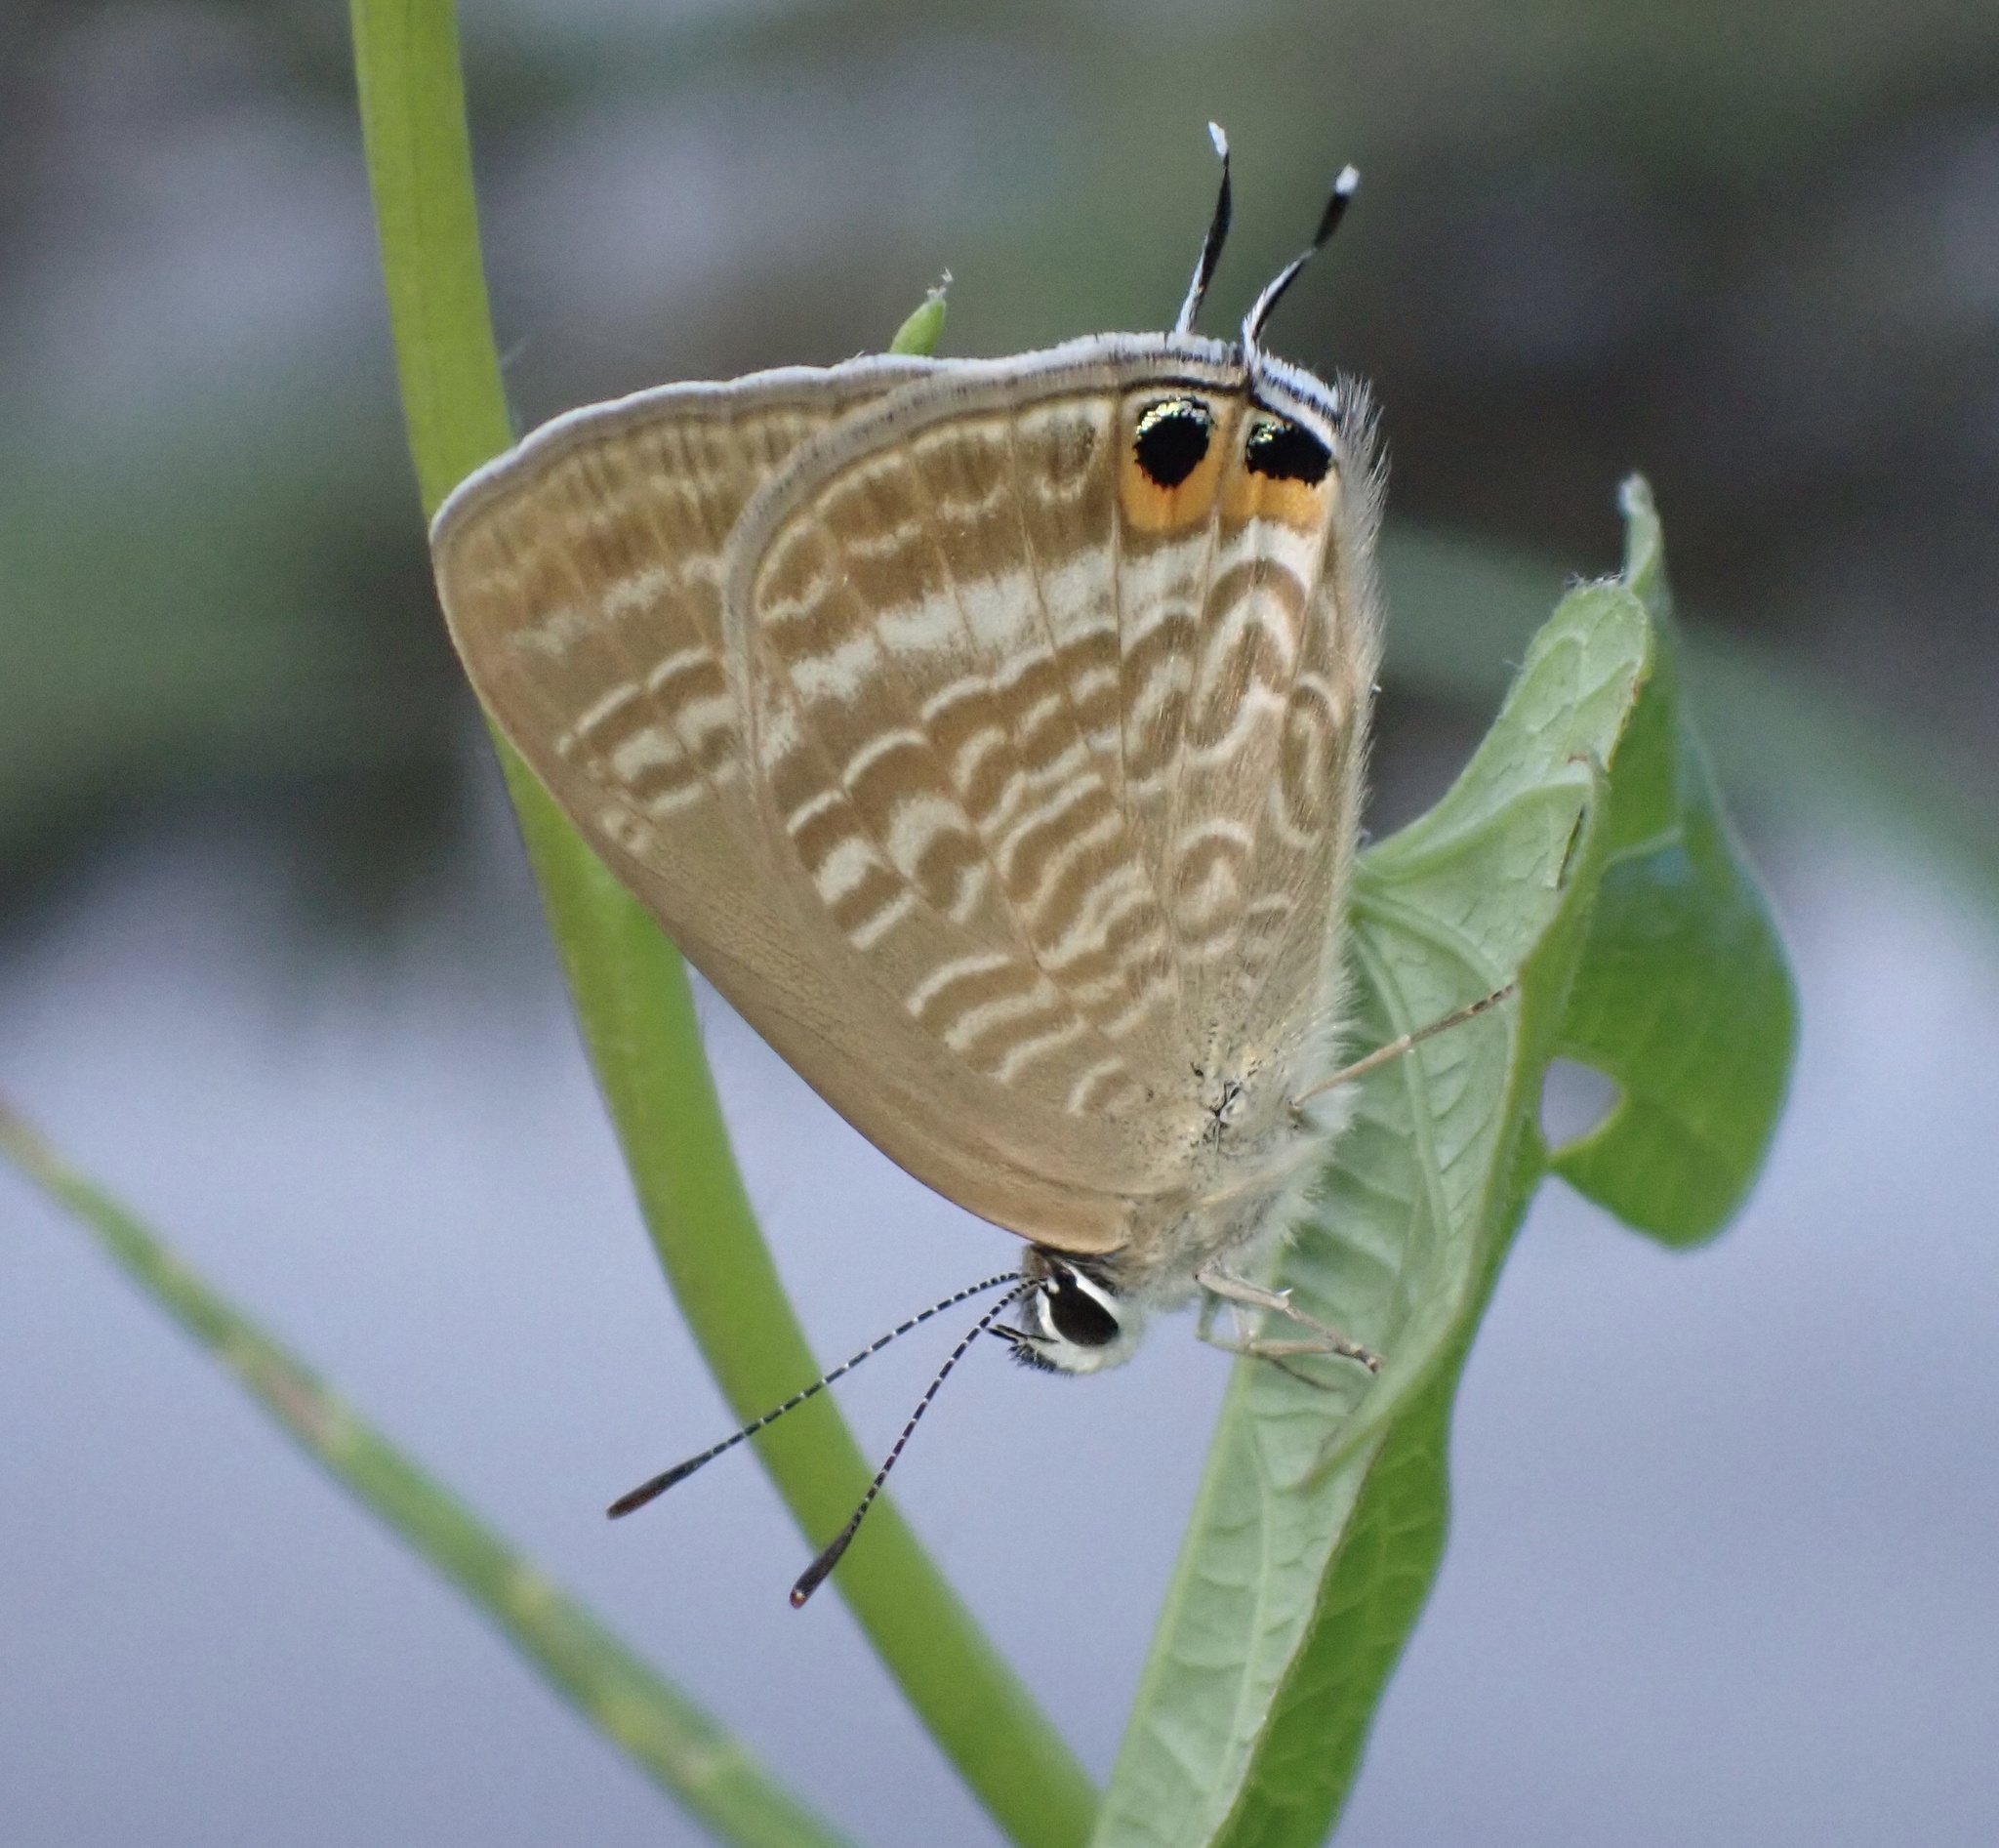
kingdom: Animalia
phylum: Arthropoda
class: Insecta
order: Lepidoptera
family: Lycaenidae
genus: Lampides
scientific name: Lampides boeticus
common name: Long-tailed blue
